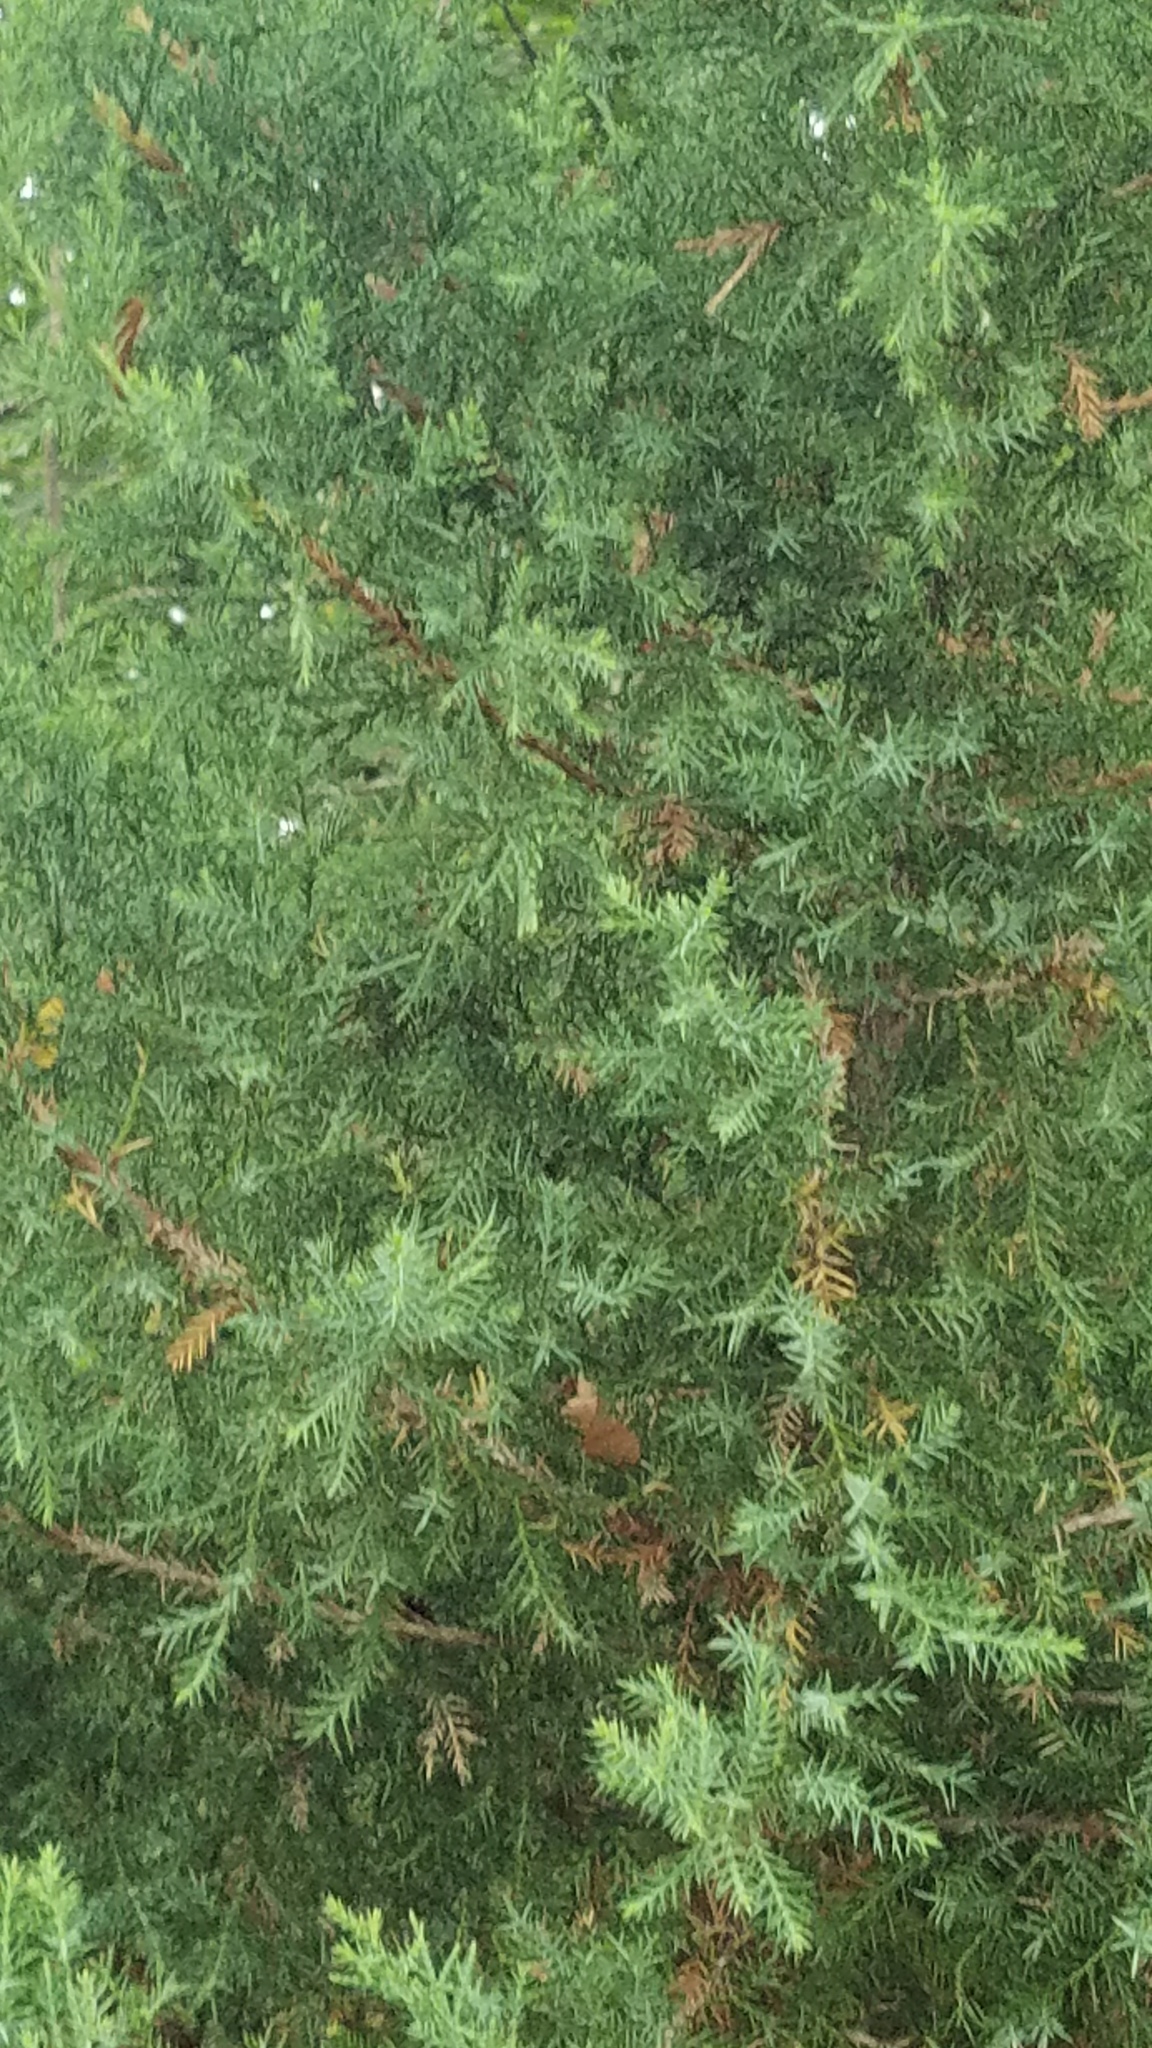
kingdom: Plantae
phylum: Tracheophyta
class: Pinopsida
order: Pinales
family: Cupressaceae
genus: Juniperus
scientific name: Juniperus virginiana
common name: Red juniper
